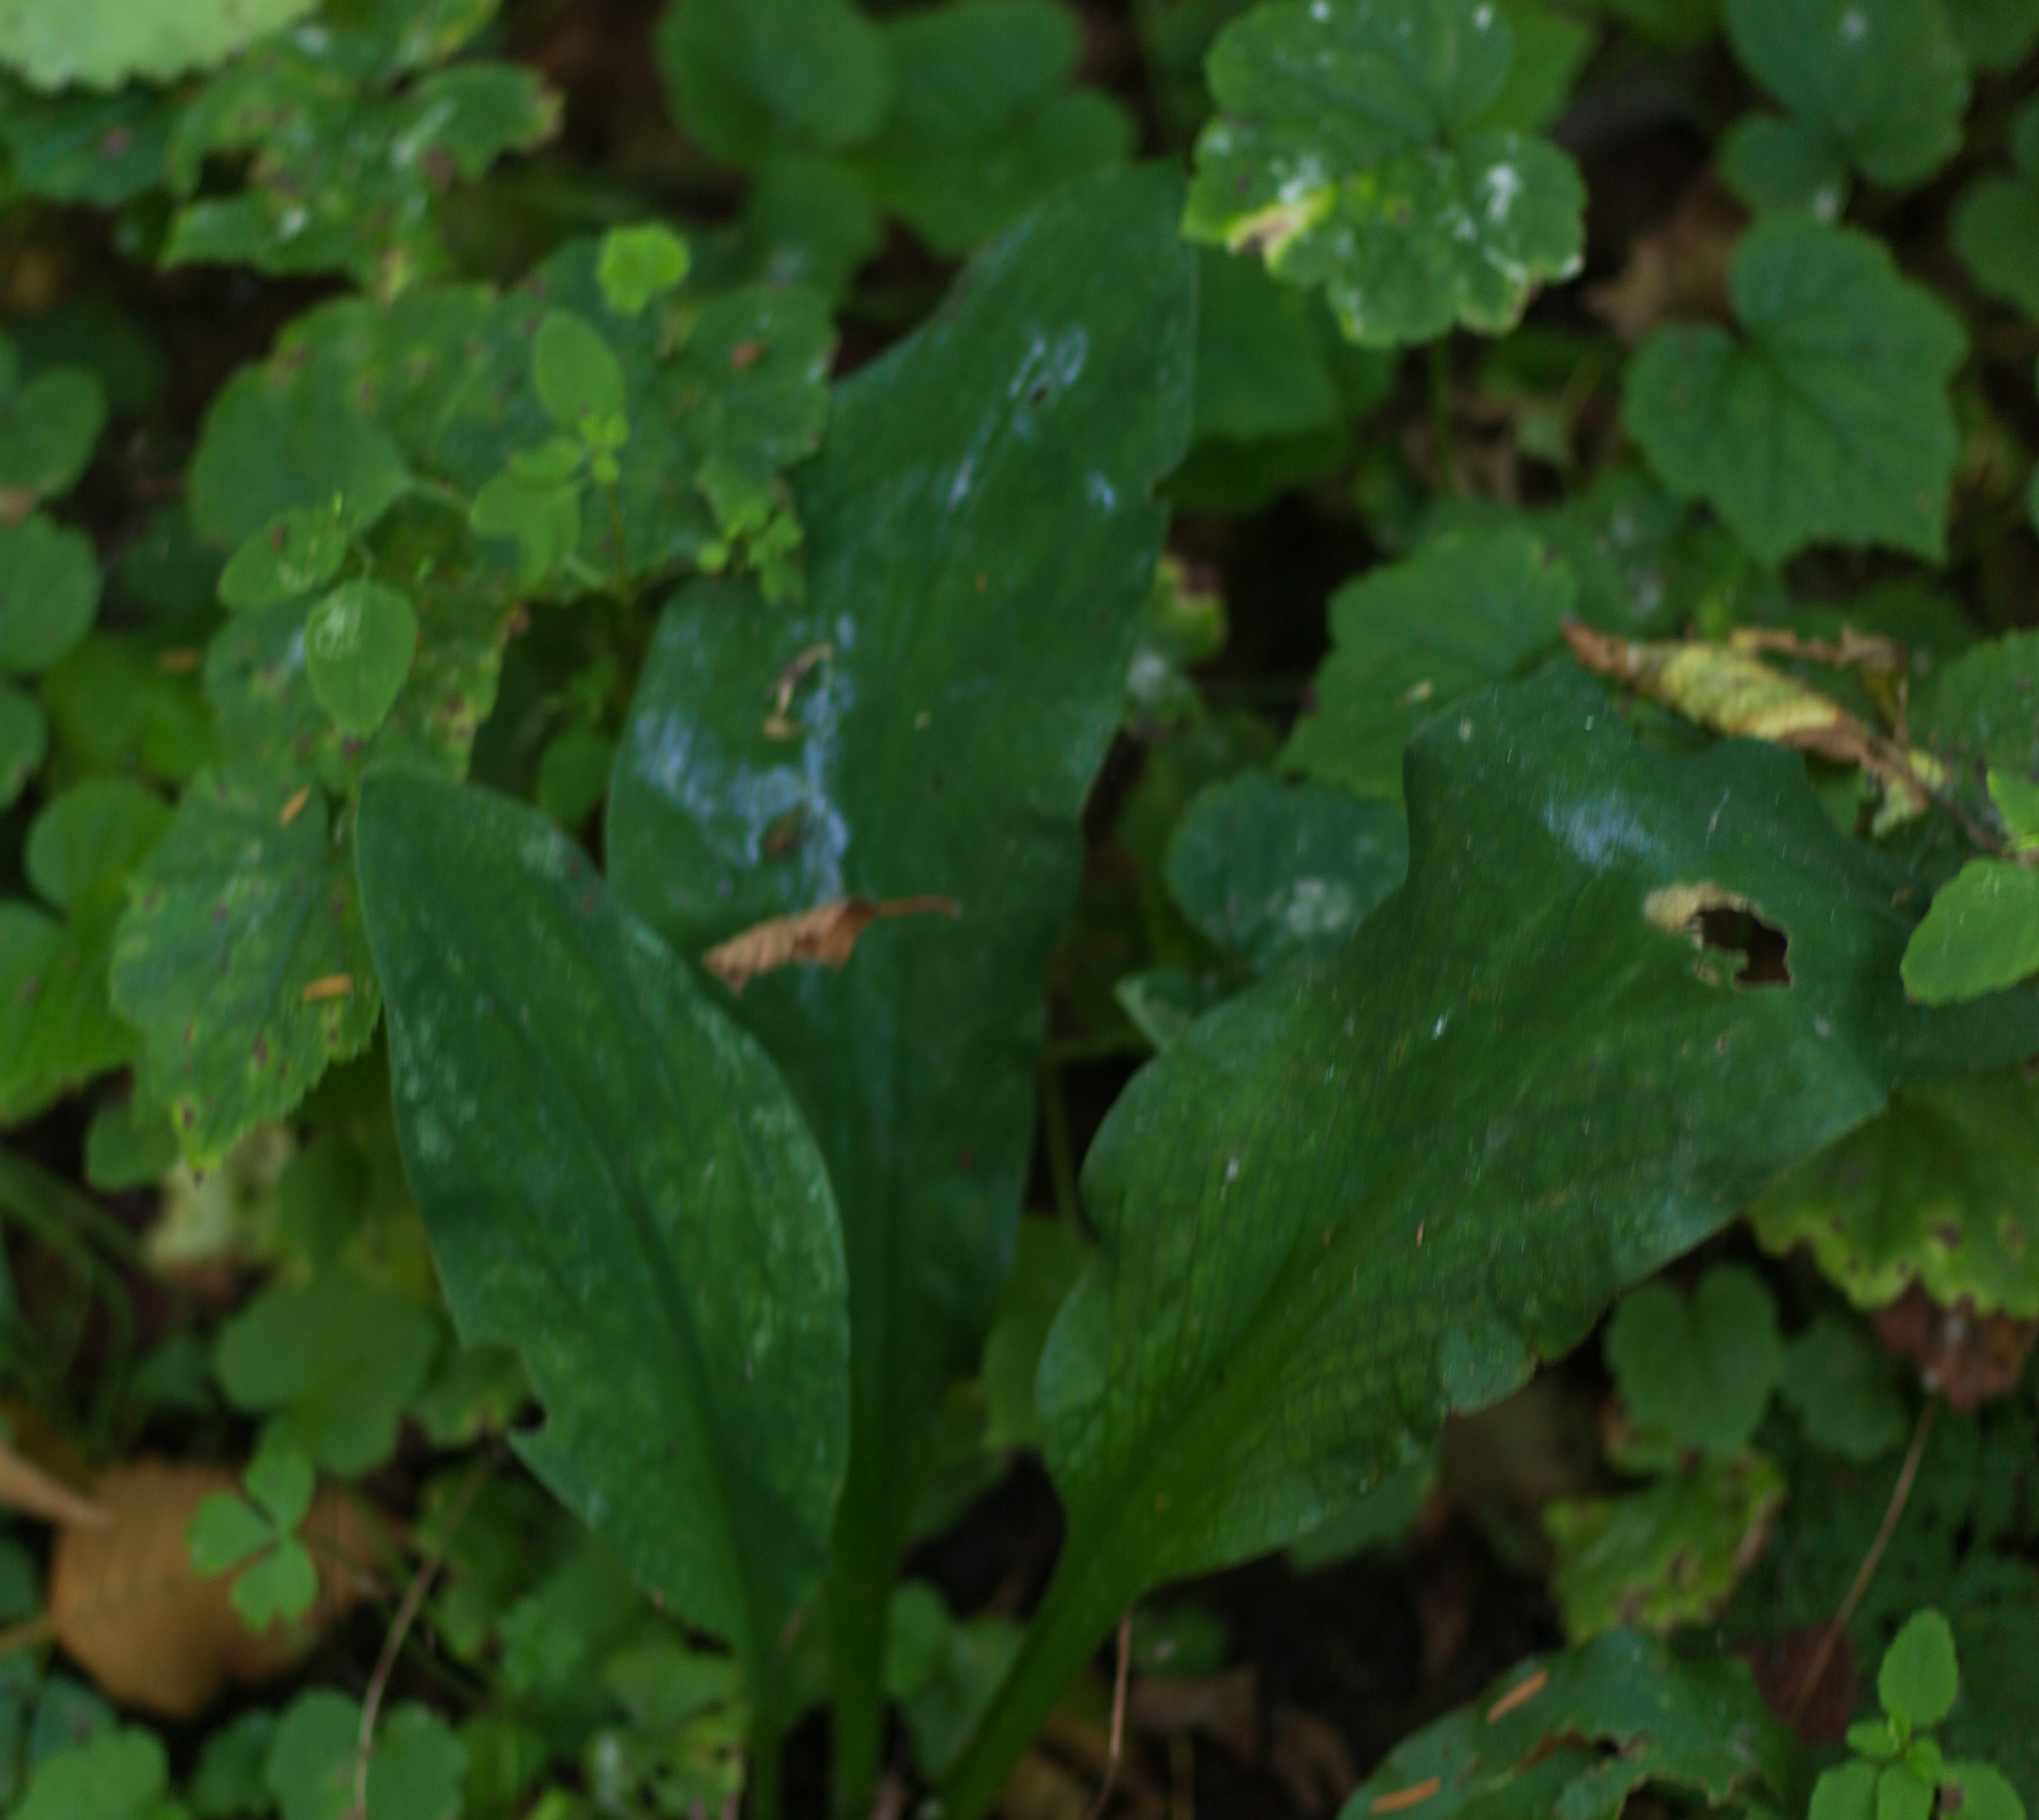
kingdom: Plantae
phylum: Tracheophyta
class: Liliopsida
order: Alismatales
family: Araceae
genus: Lysichiton
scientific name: Lysichiton americanus
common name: American skunk cabbage
